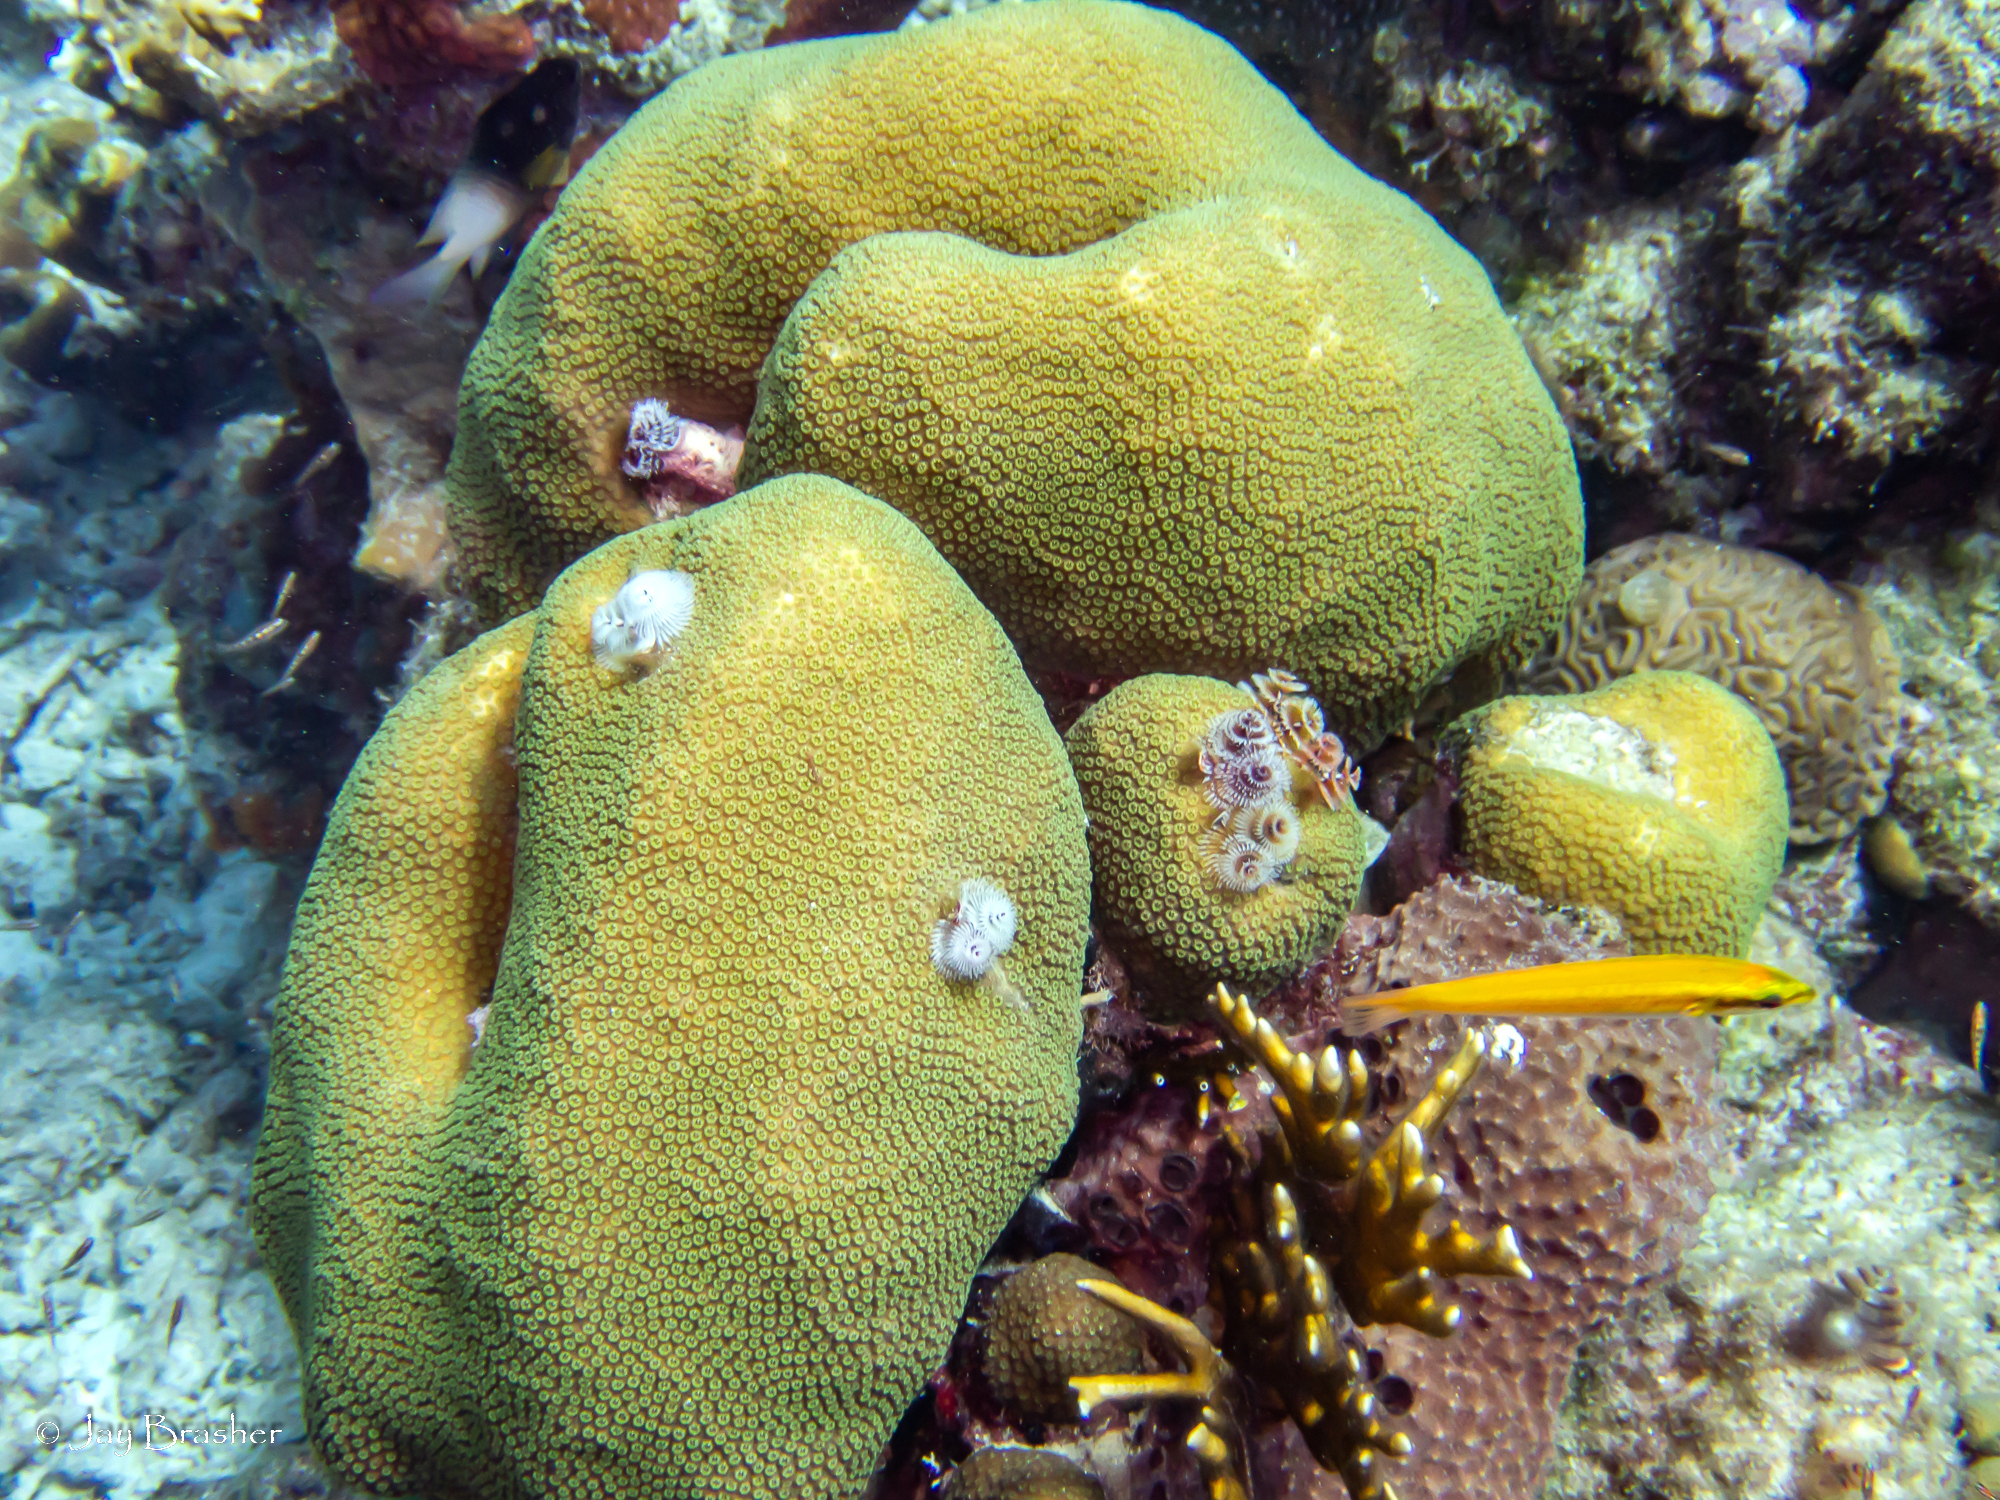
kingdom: Animalia
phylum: Porifera
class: Demospongiae
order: Dictyoceratida
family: Irciniidae
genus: Ircinia
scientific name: Ircinia felix
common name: Stinker sponge
